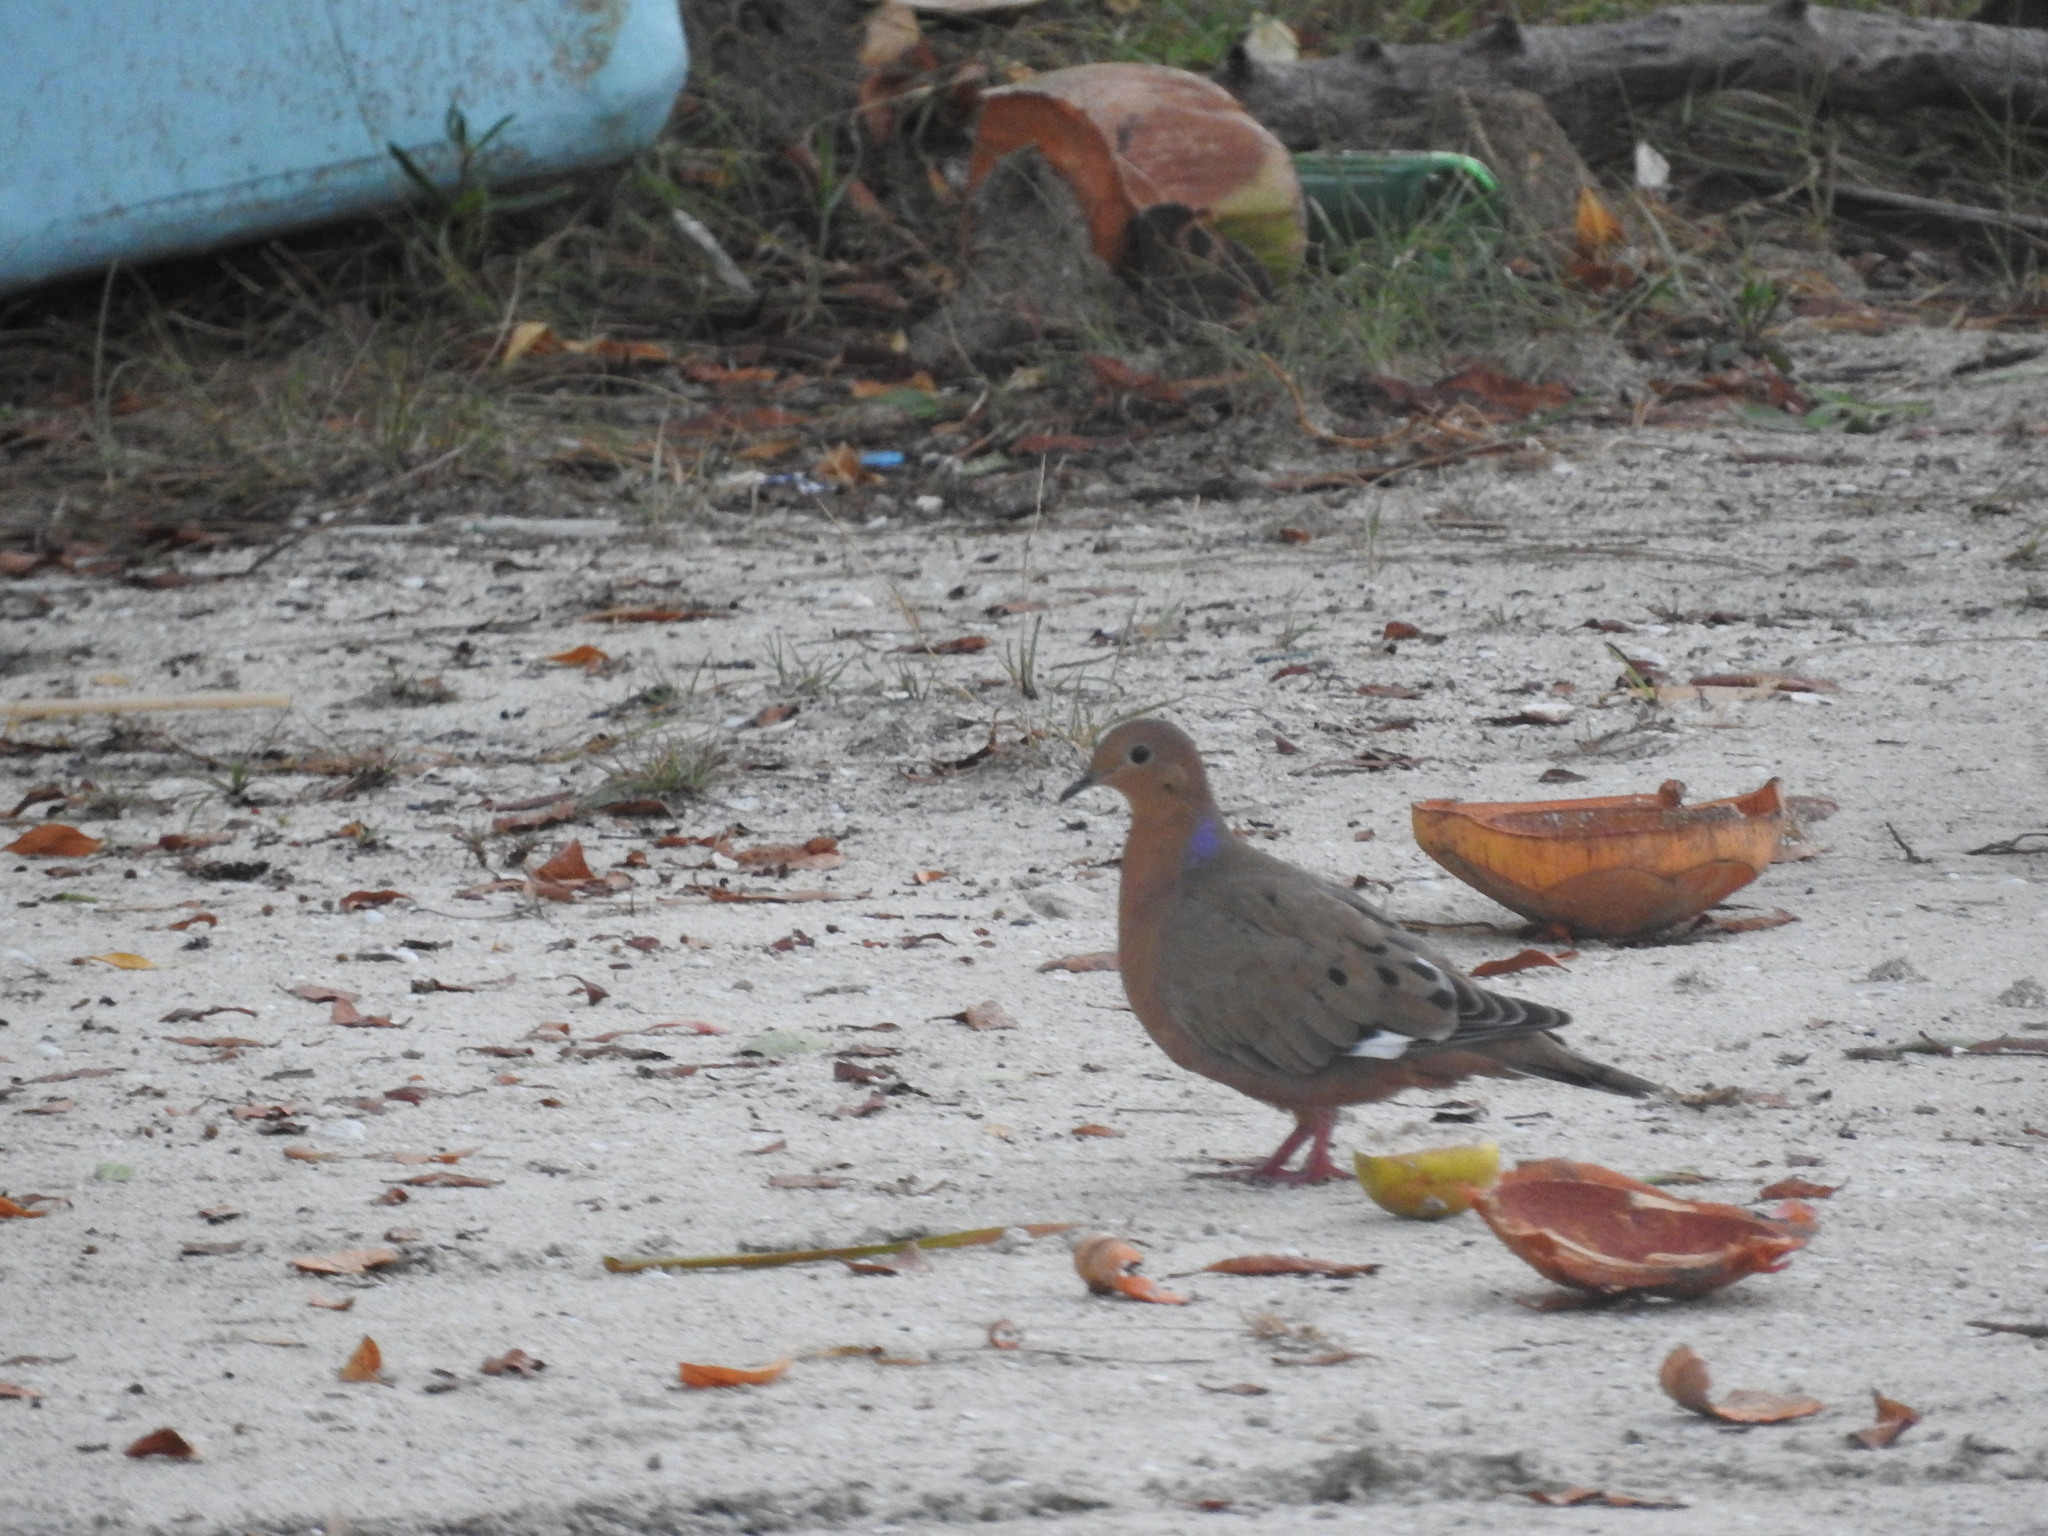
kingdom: Animalia
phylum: Chordata
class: Aves
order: Columbiformes
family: Columbidae
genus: Zenaida
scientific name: Zenaida aurita
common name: Zenaida dove
